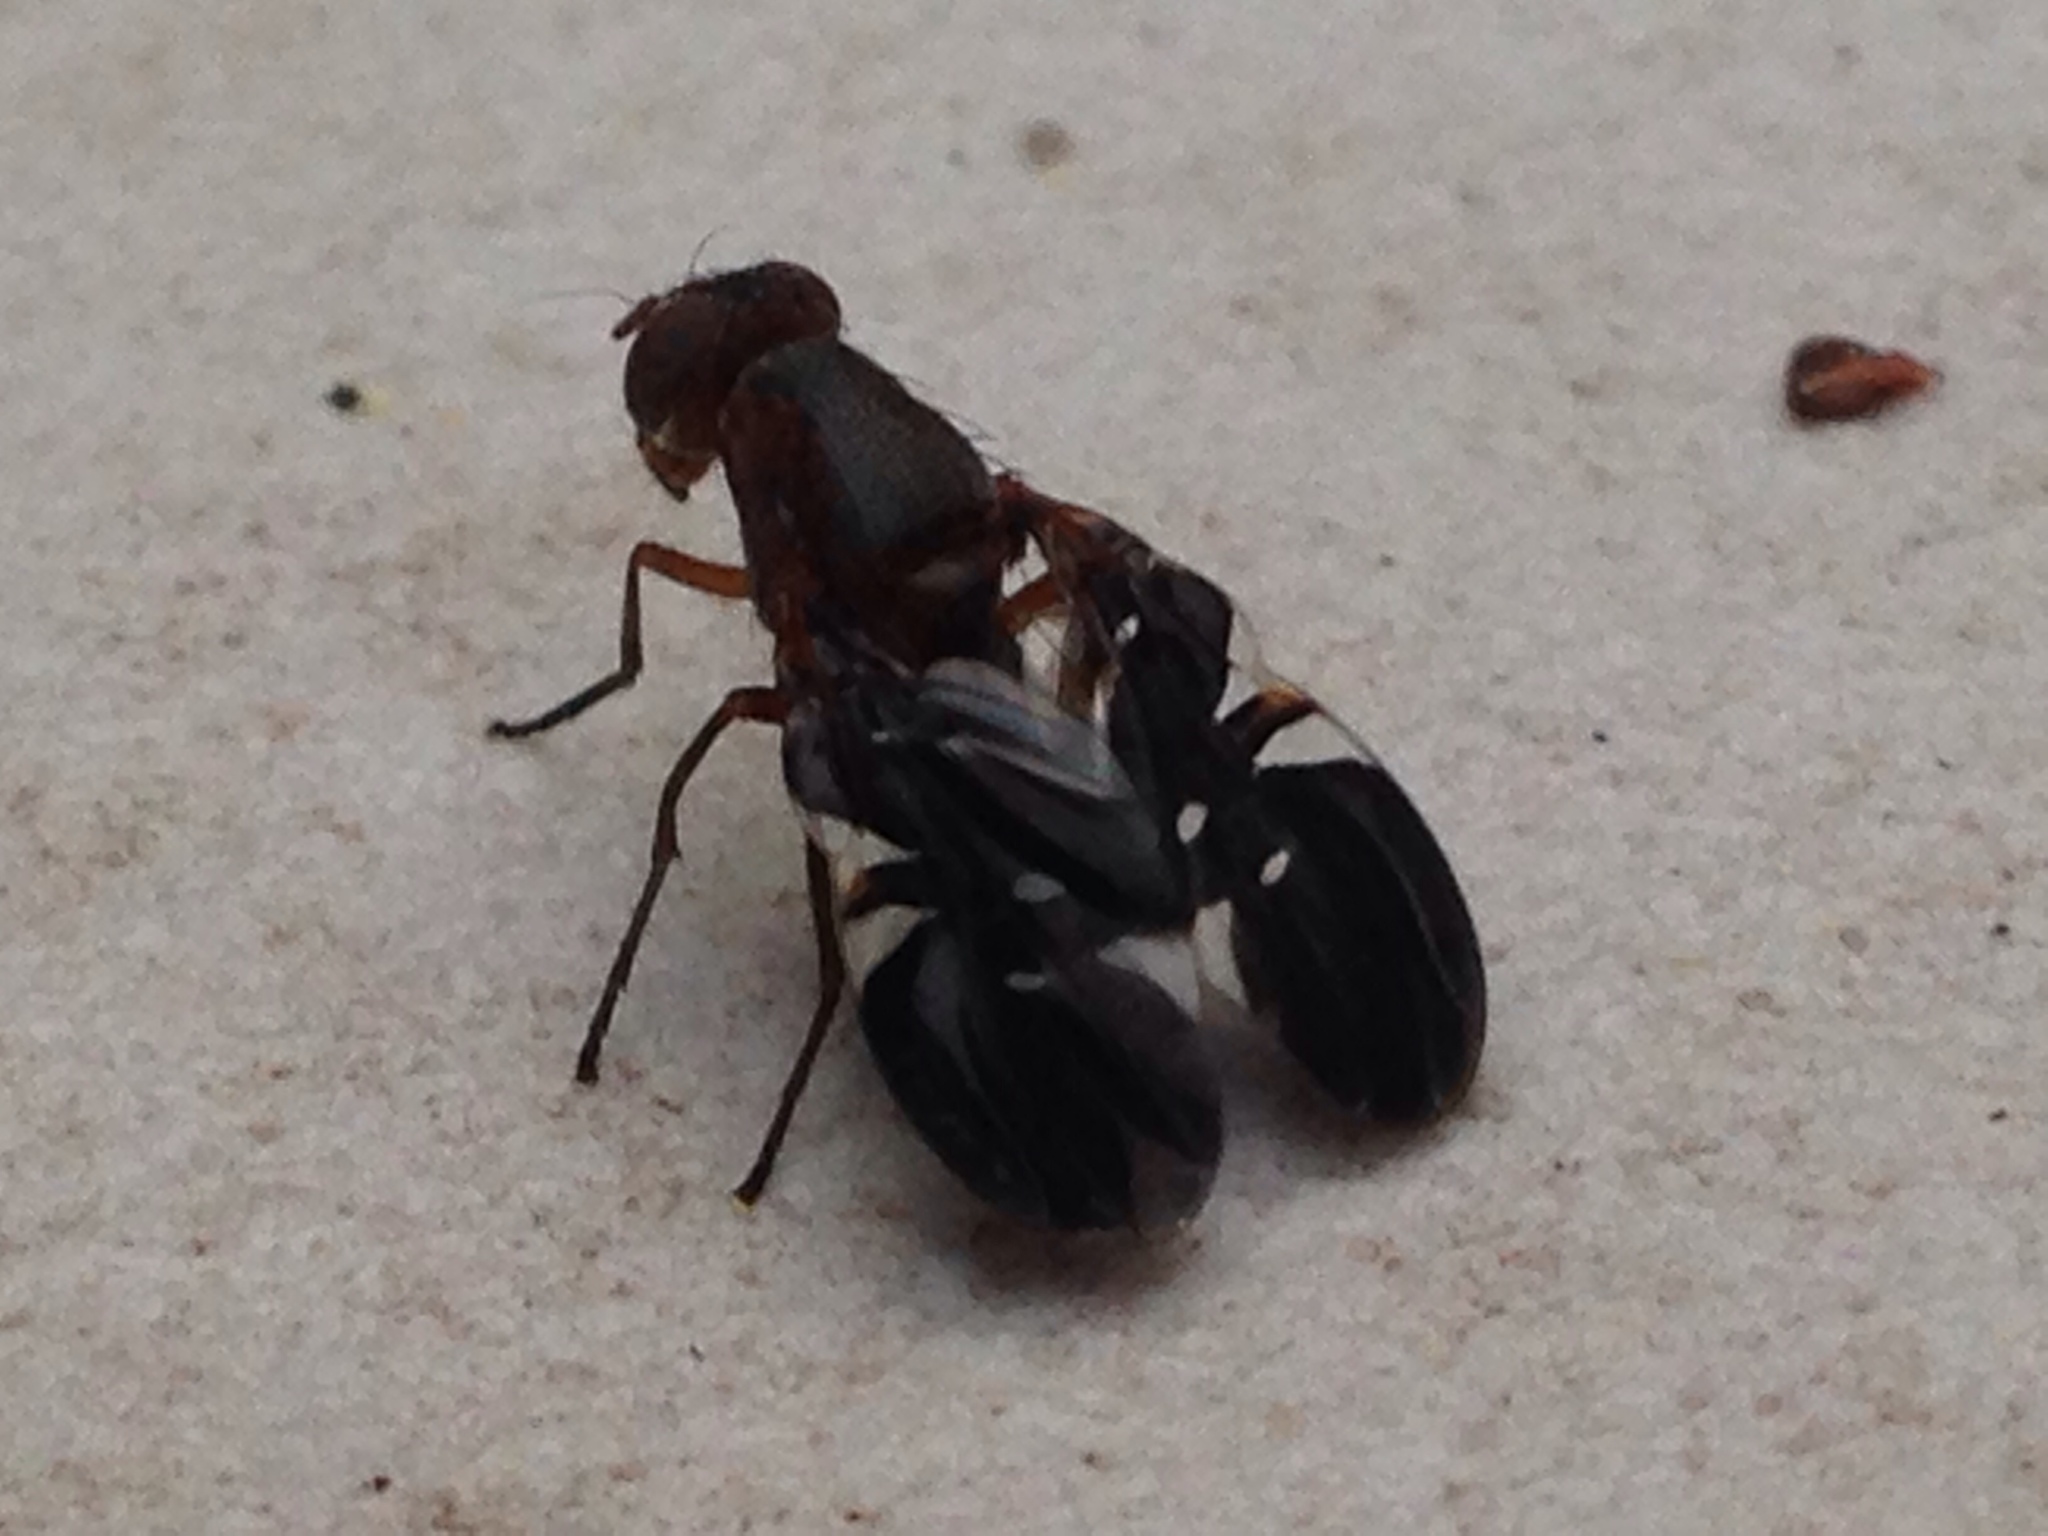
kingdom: Animalia
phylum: Arthropoda
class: Insecta
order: Diptera
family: Ulidiidae
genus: Delphinia
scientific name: Delphinia picta
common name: Common picture-winged fly
